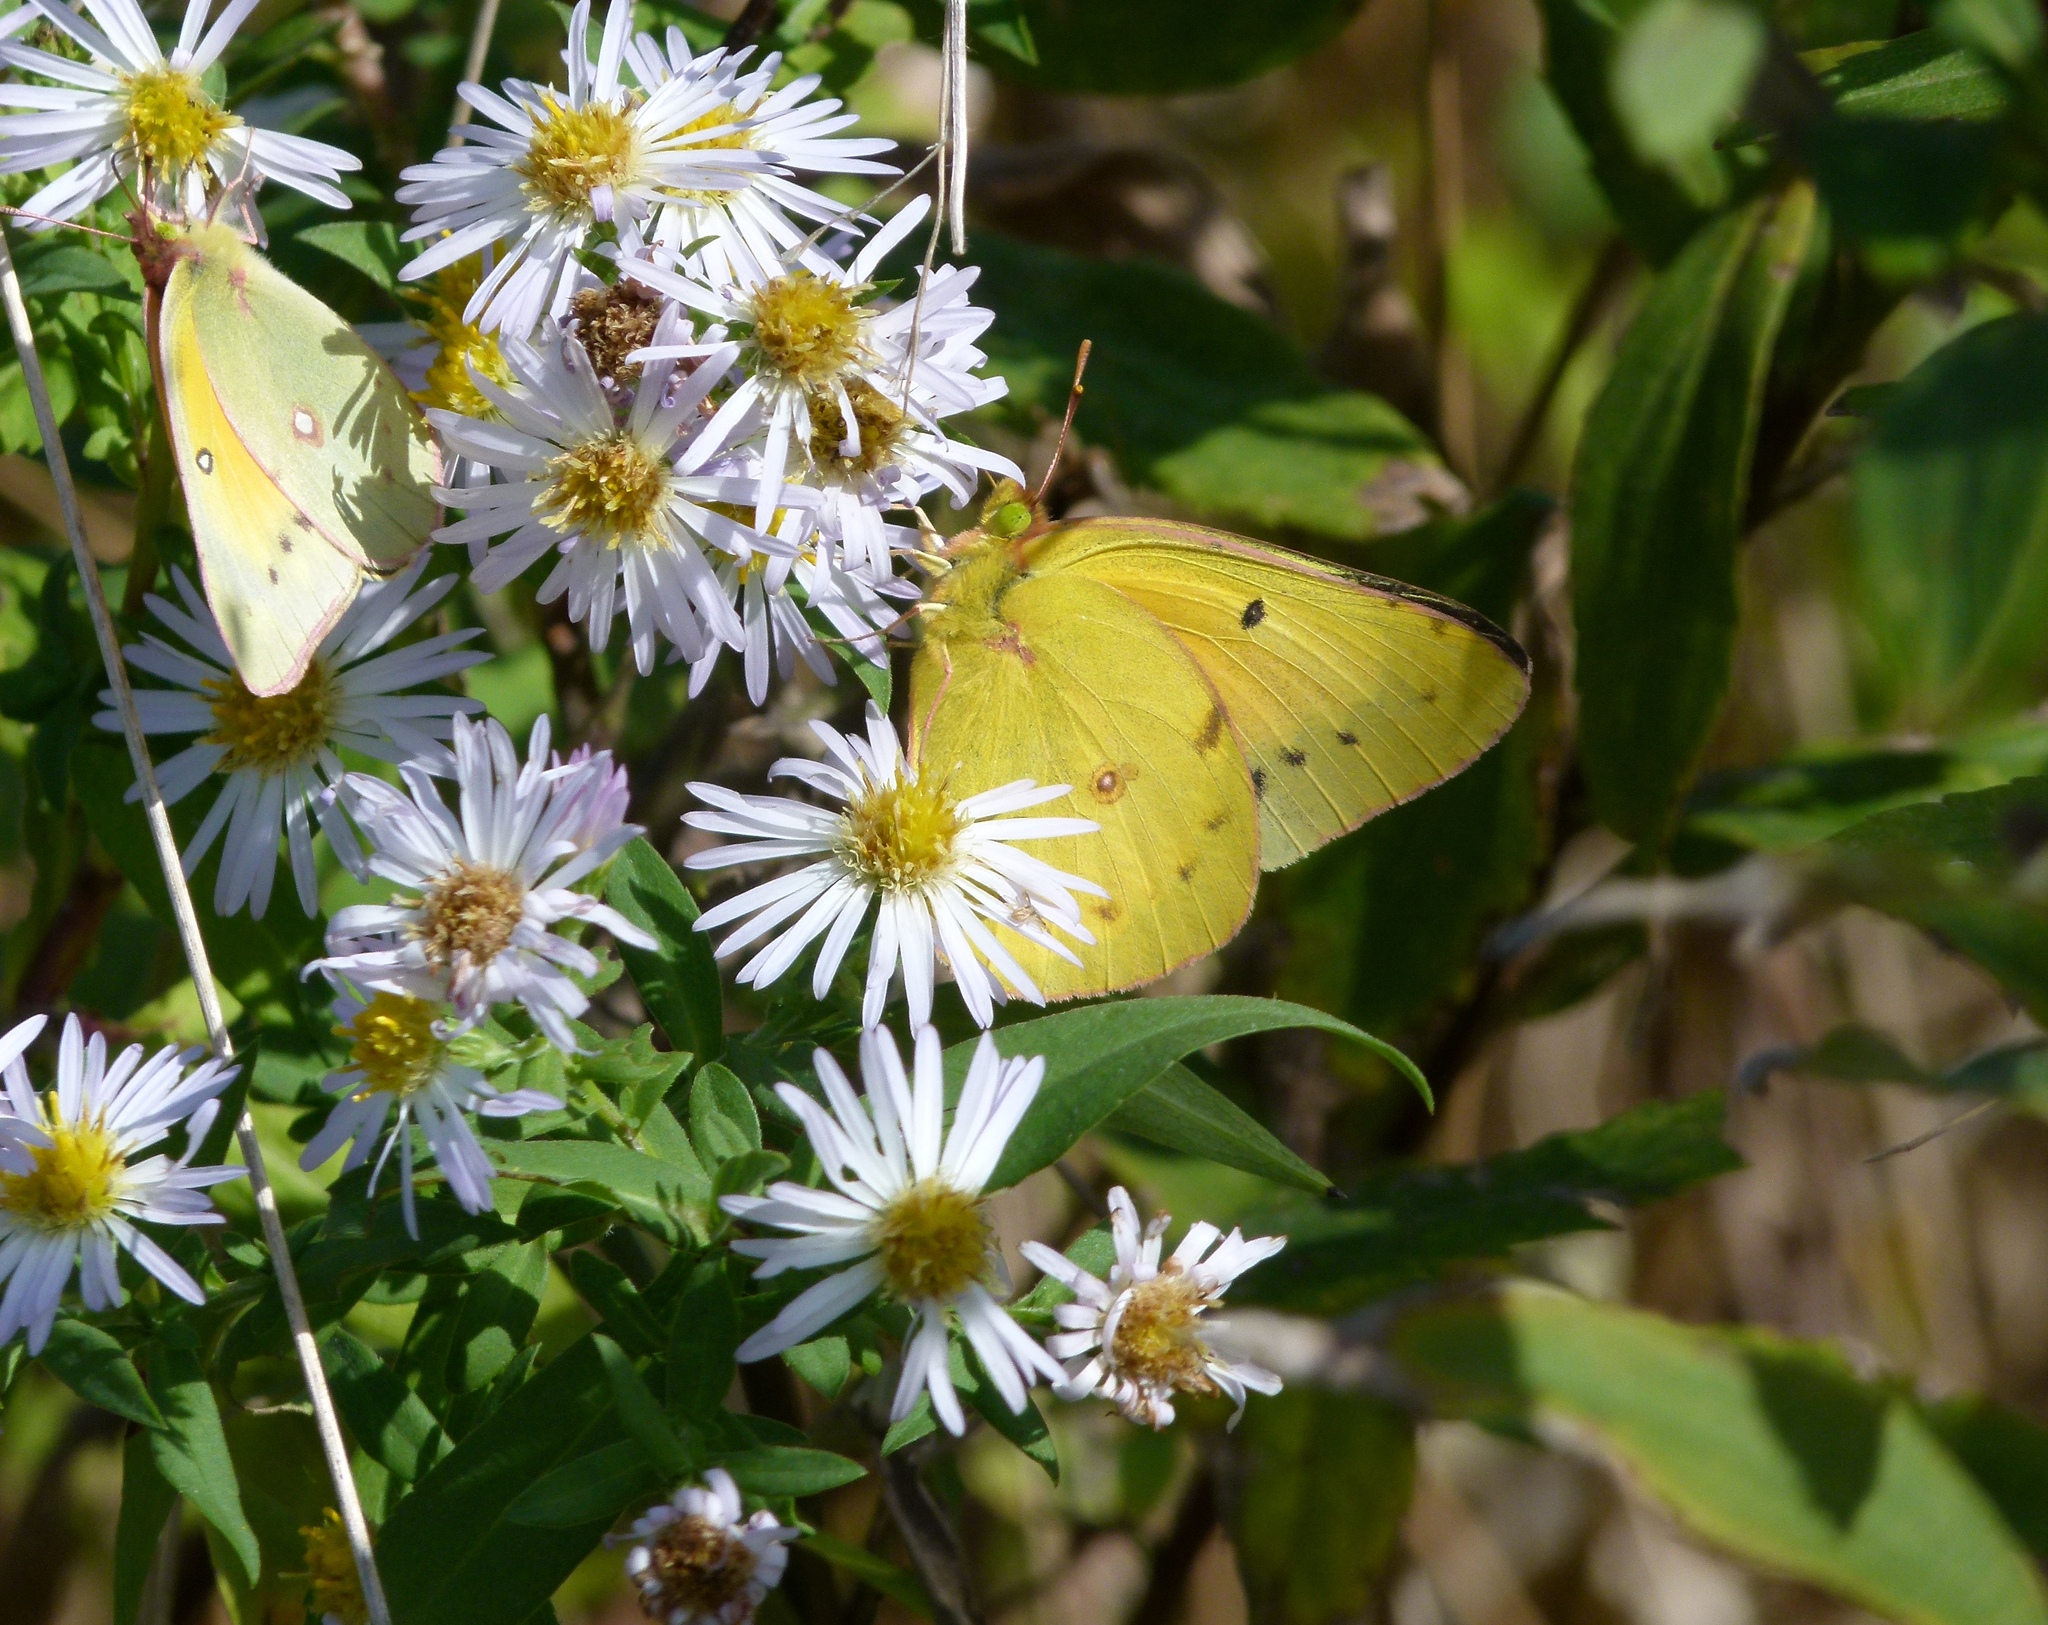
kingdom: Animalia
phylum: Arthropoda
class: Insecta
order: Lepidoptera
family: Pieridae
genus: Colias
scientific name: Colias eurytheme
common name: Alfalfa butterfly
